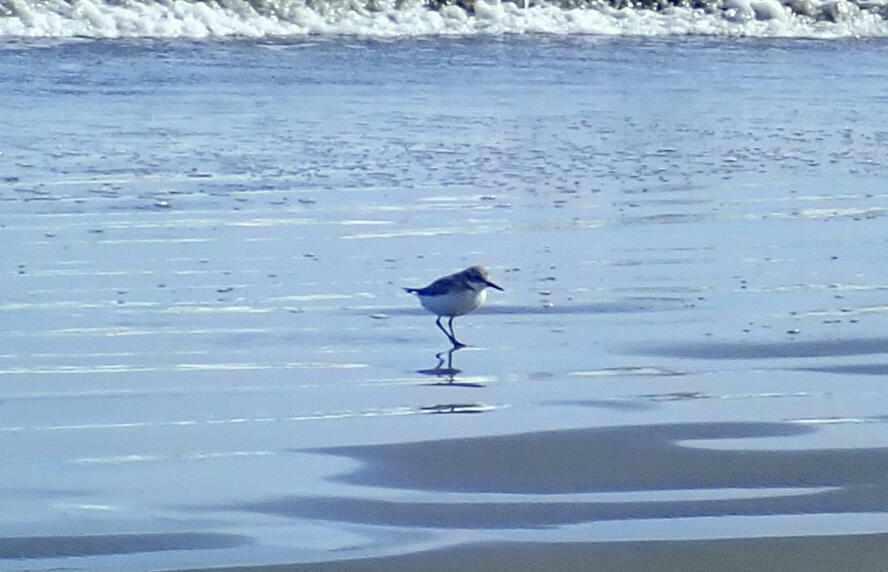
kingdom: Animalia
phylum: Chordata
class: Aves
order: Charadriiformes
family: Charadriidae
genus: Anarhynchus
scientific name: Anarhynchus frontalis
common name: Wrybill
